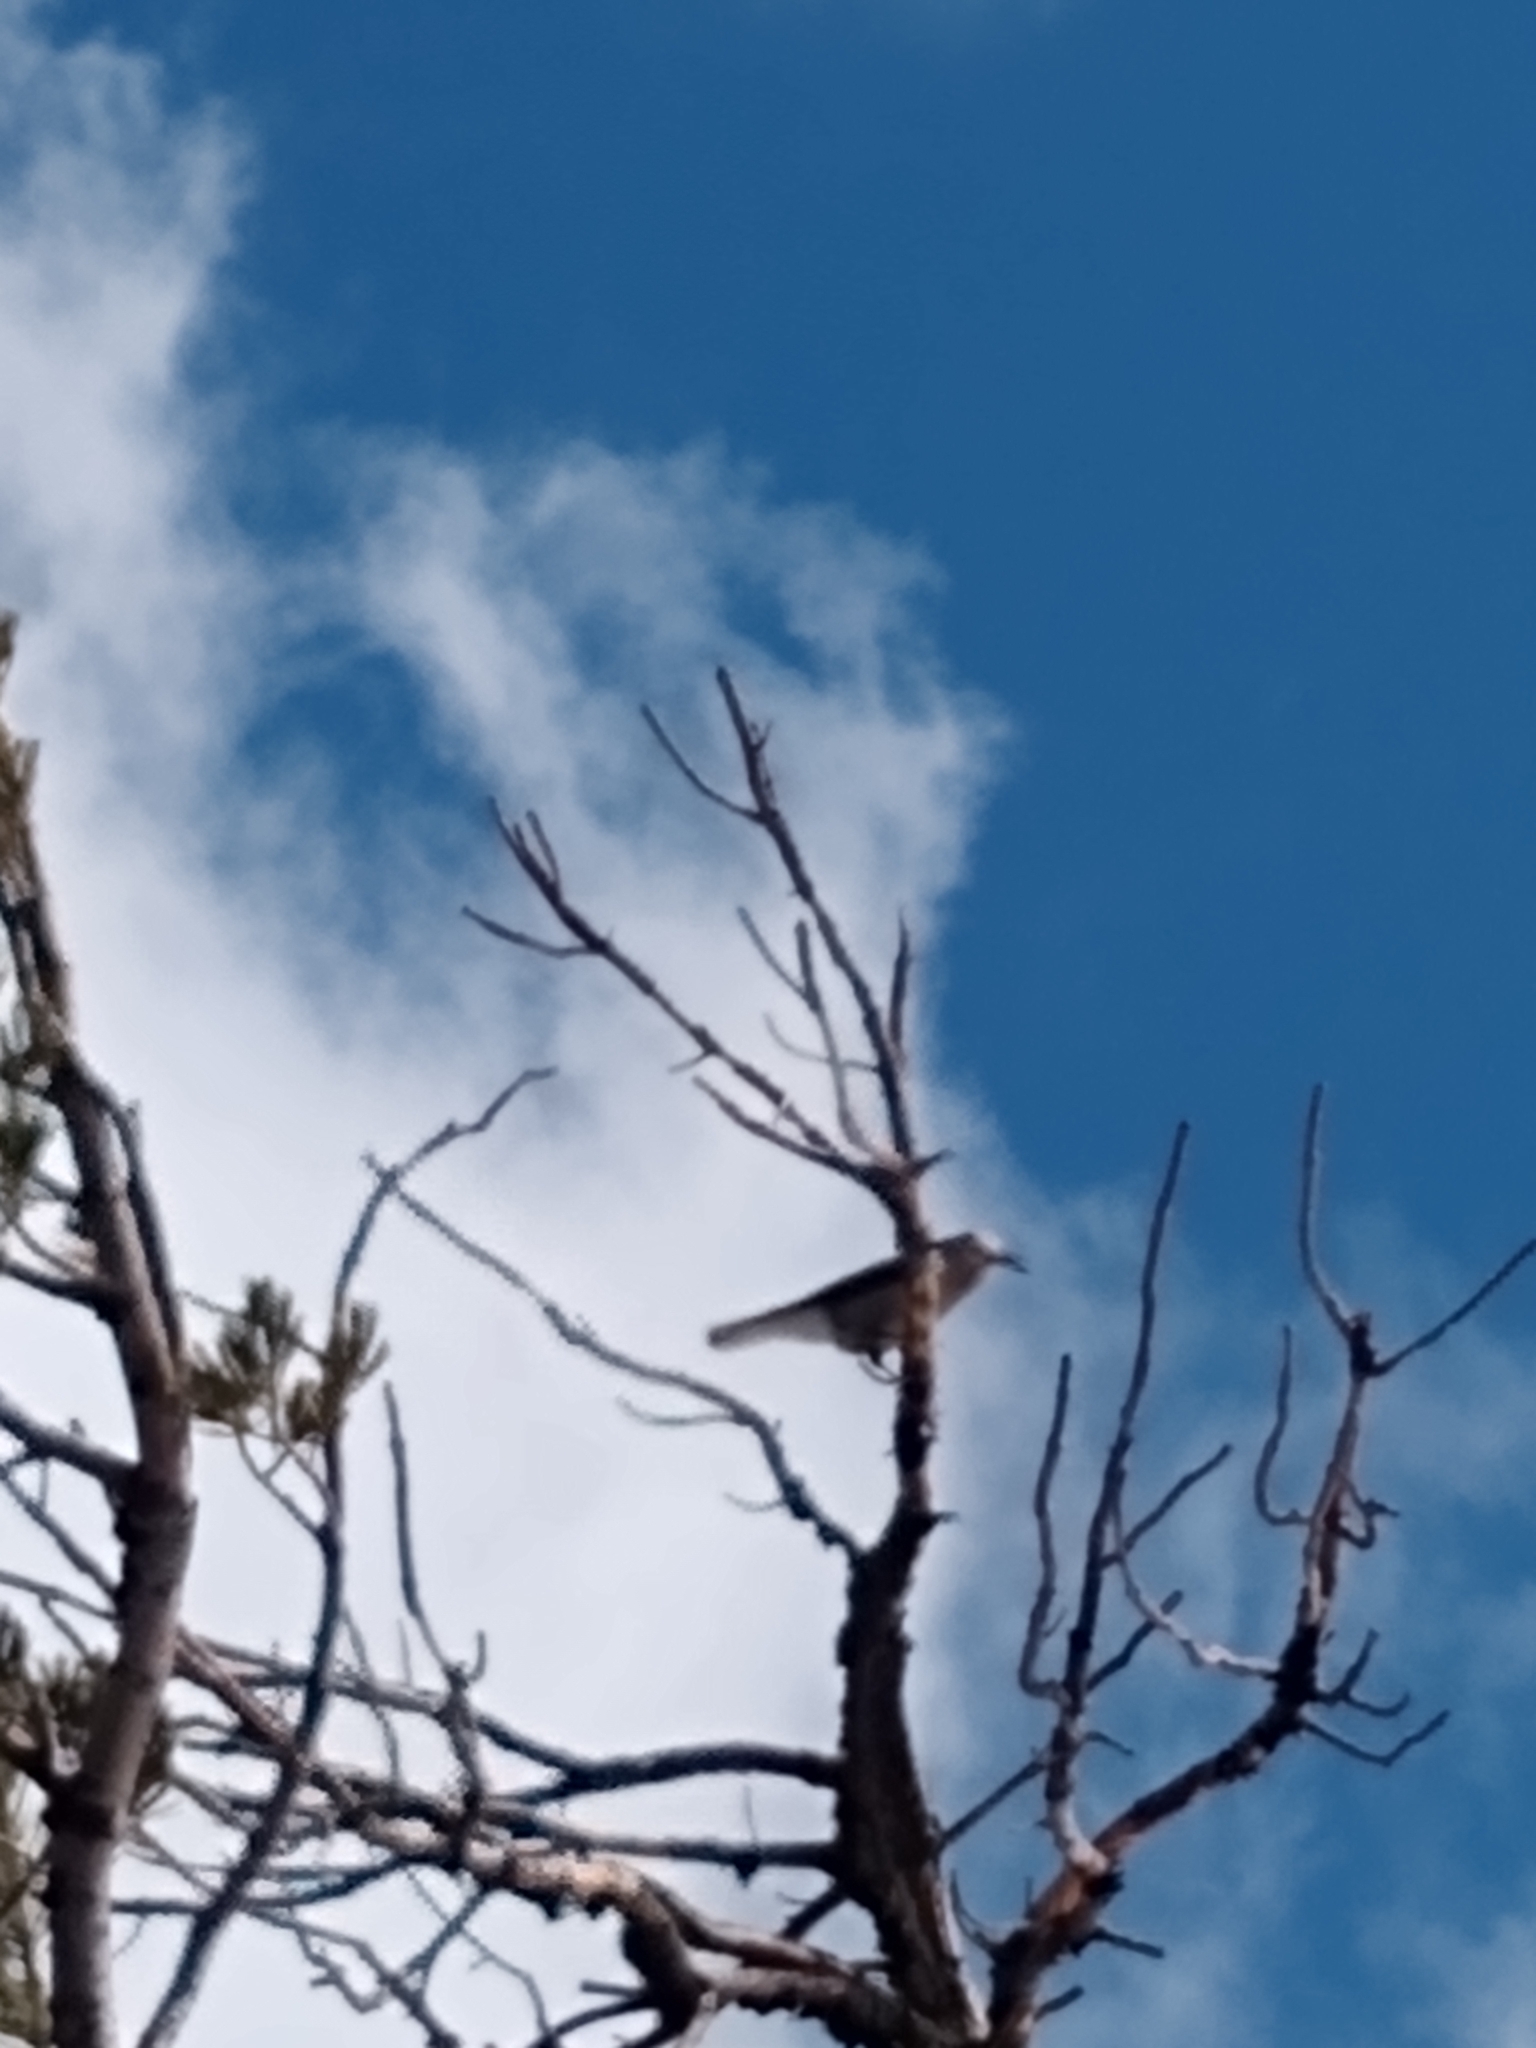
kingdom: Animalia
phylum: Chordata
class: Aves
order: Passeriformes
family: Corvidae
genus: Nucifraga
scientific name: Nucifraga columbiana
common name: Clark's nutcracker
